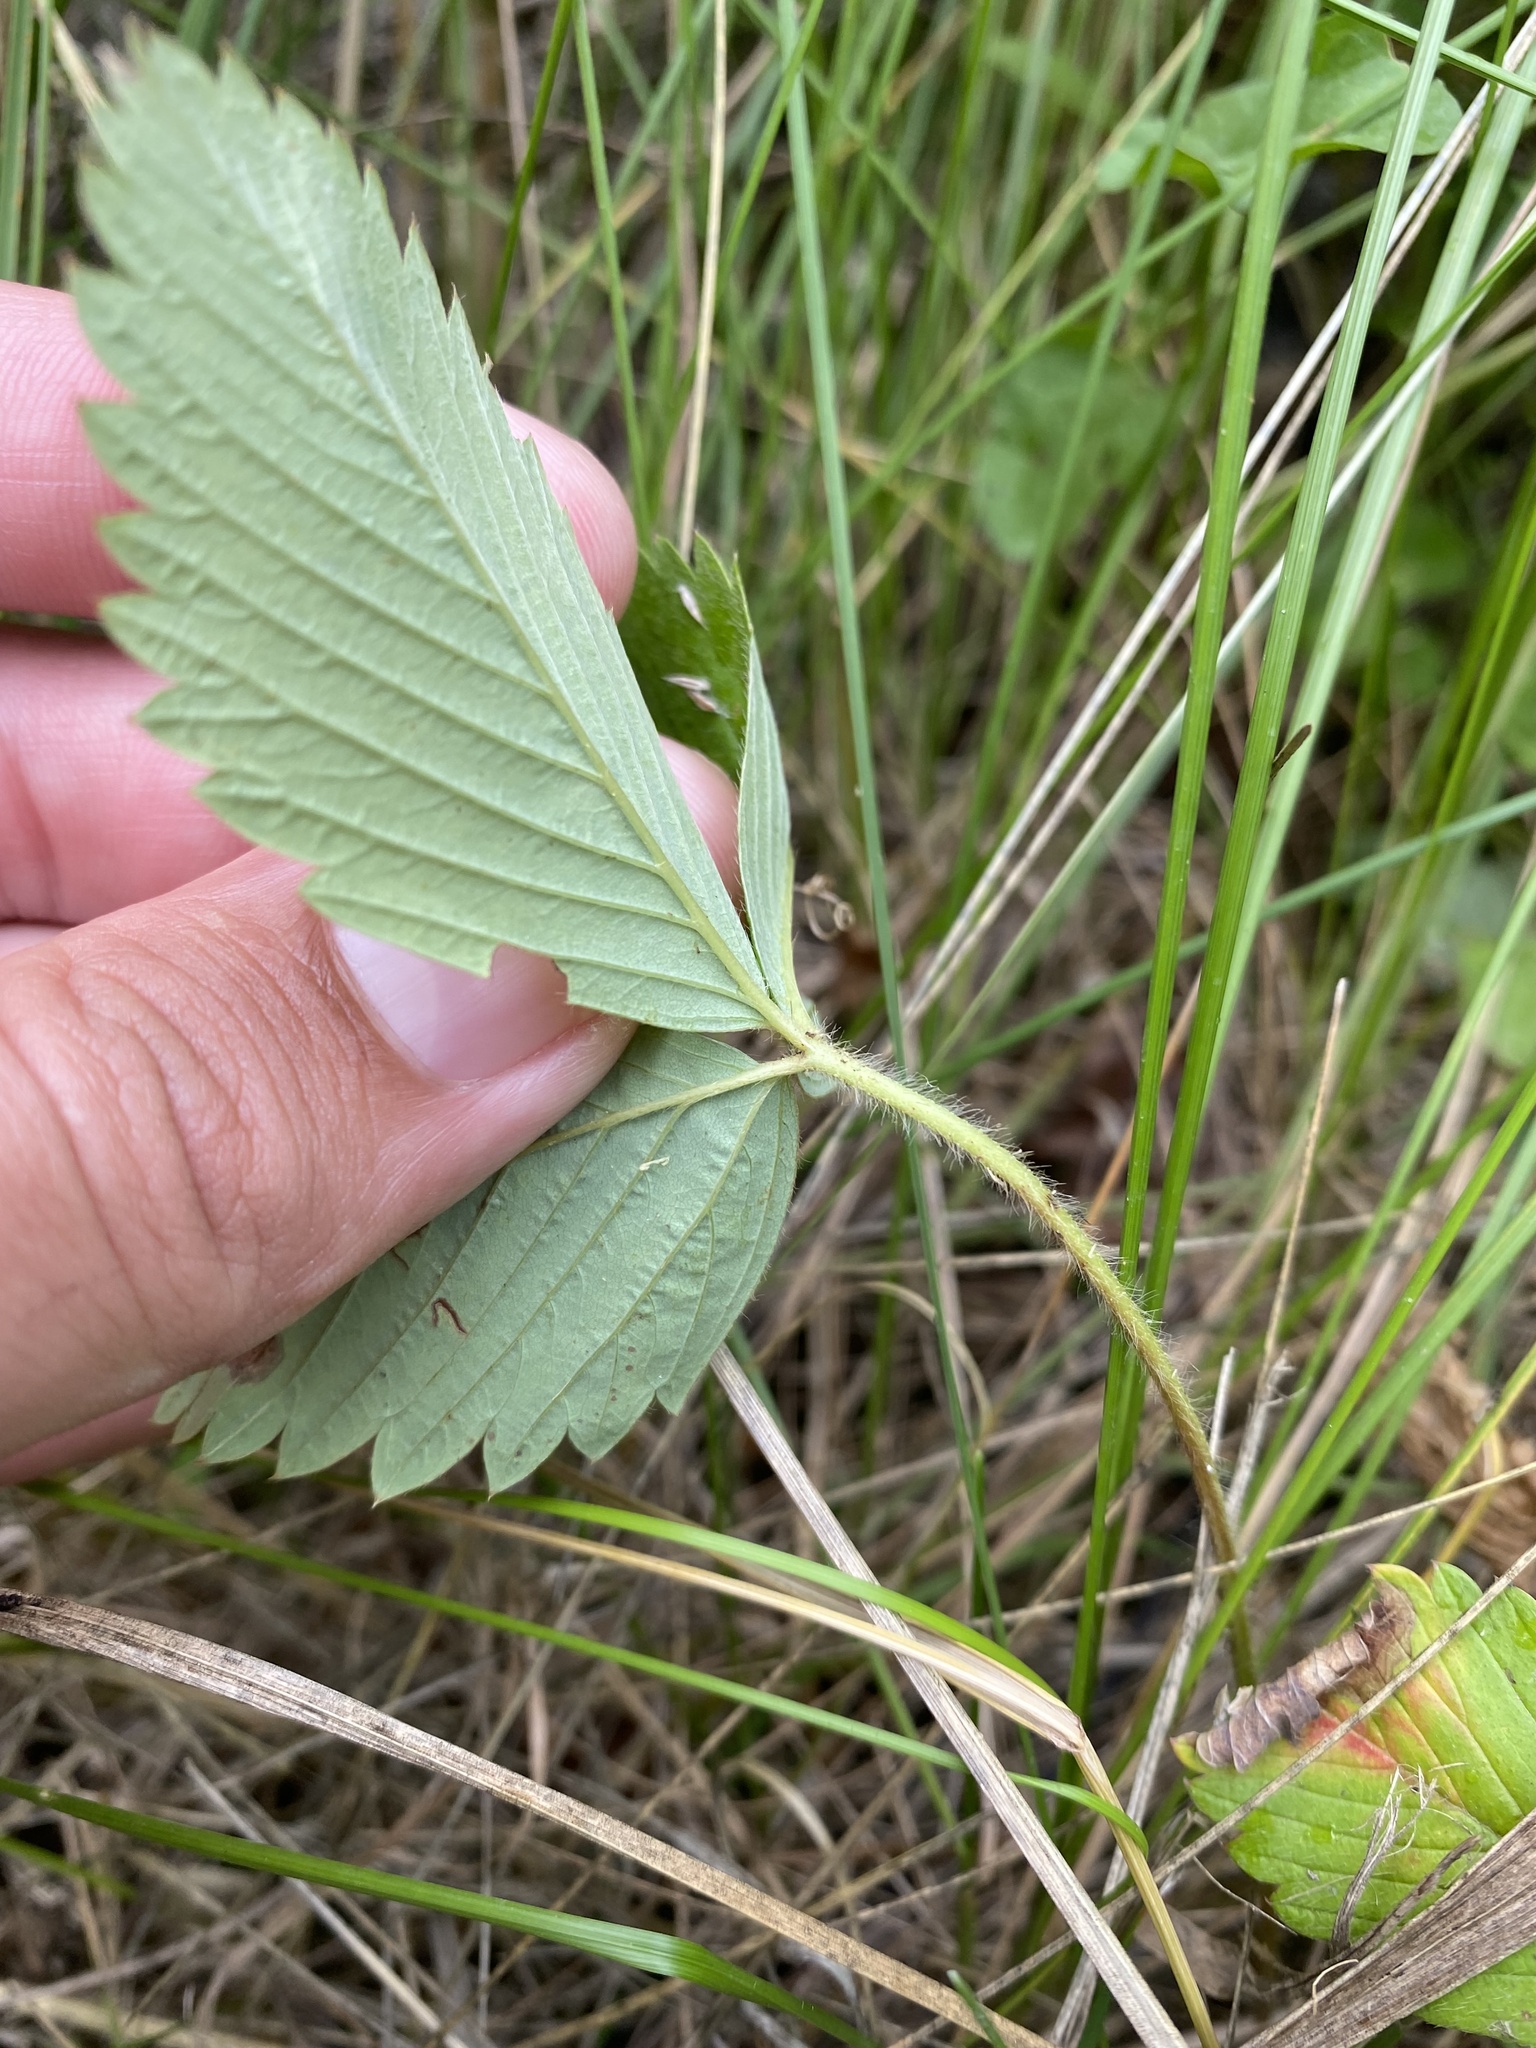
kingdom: Plantae
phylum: Tracheophyta
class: Magnoliopsida
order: Rosales
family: Rosaceae
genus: Fragaria
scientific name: Fragaria viridis
